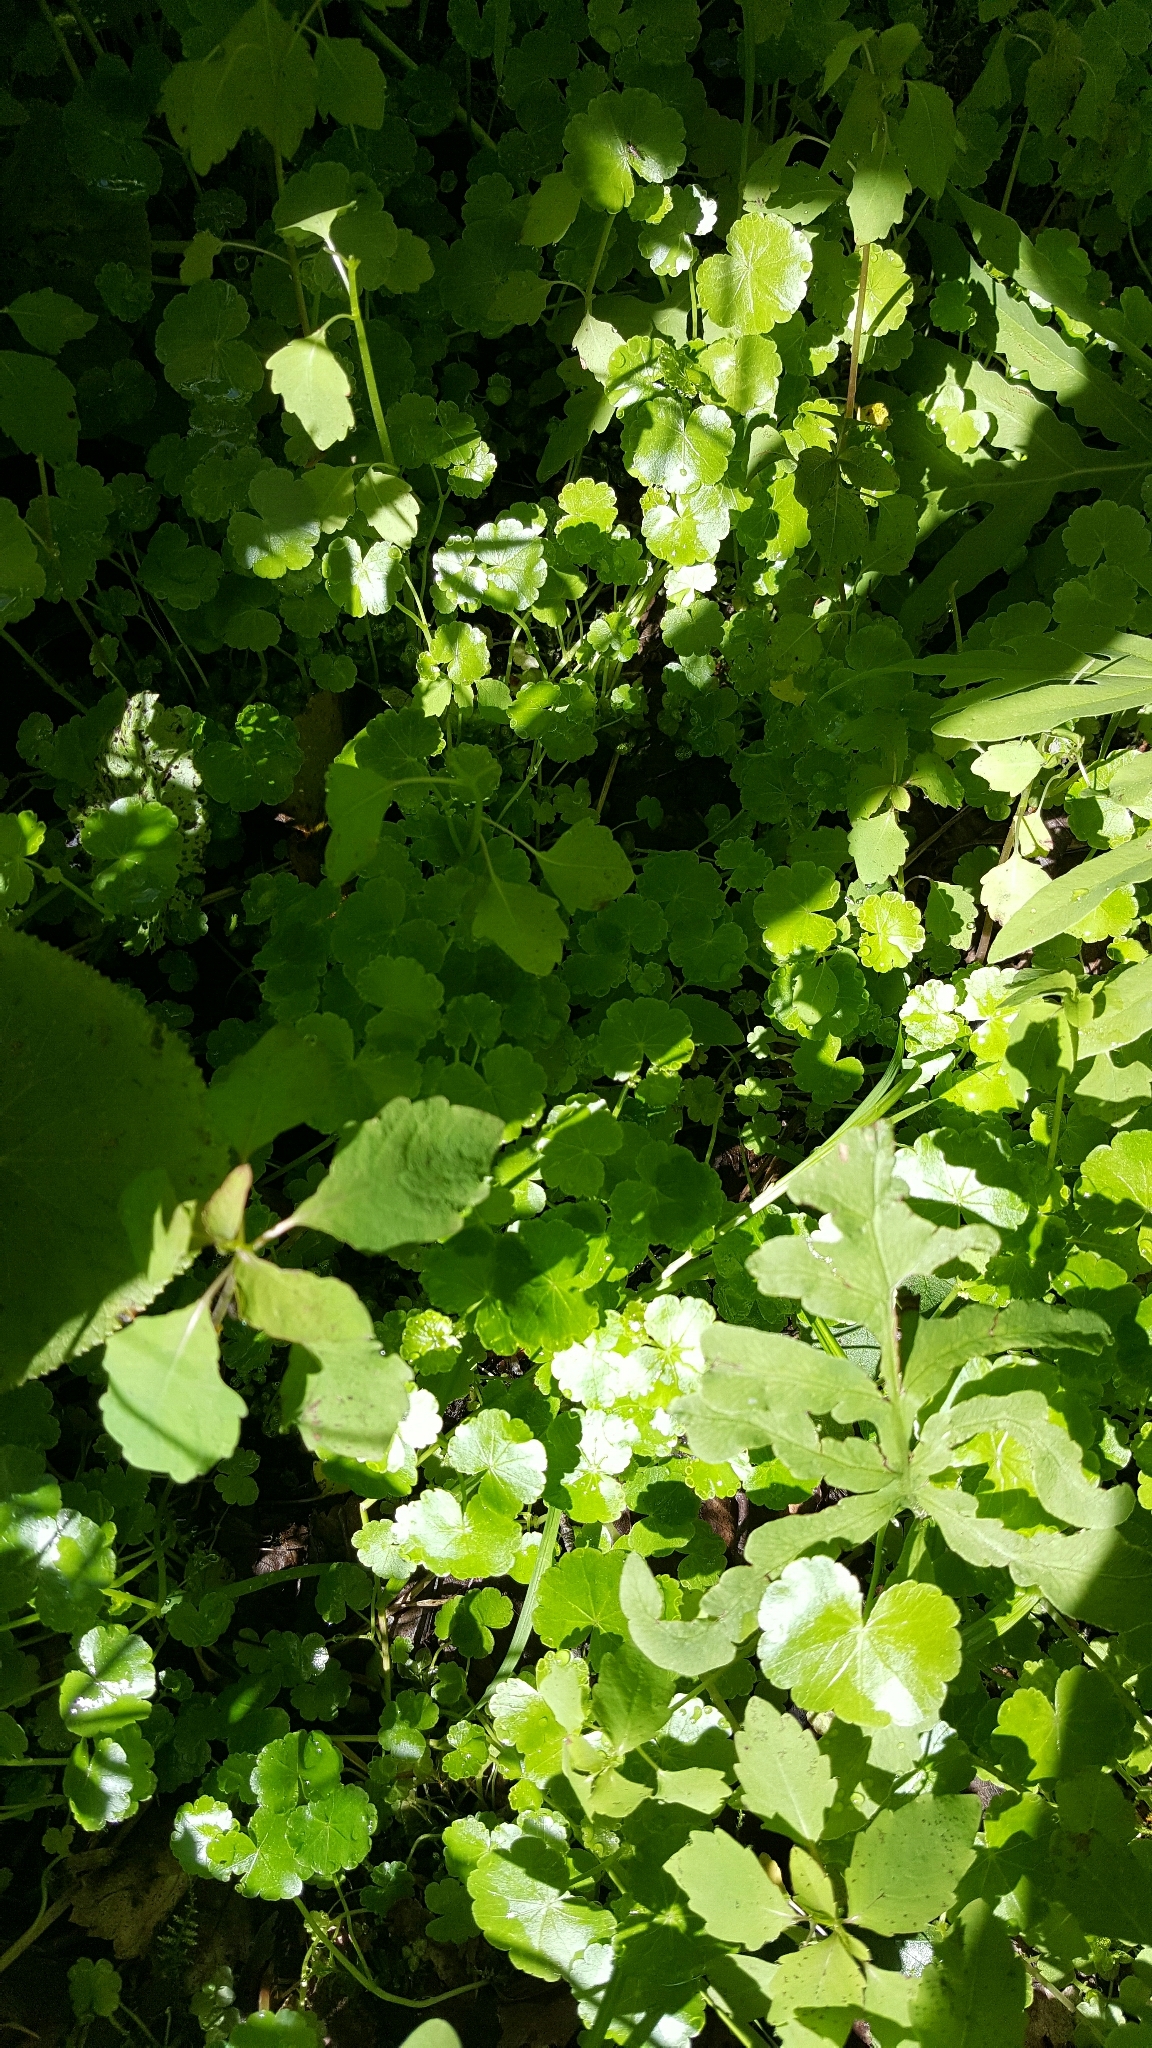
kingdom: Plantae
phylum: Tracheophyta
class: Magnoliopsida
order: Apiales
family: Araliaceae
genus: Hydrocotyle
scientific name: Hydrocotyle americana
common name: American water-pennywort
